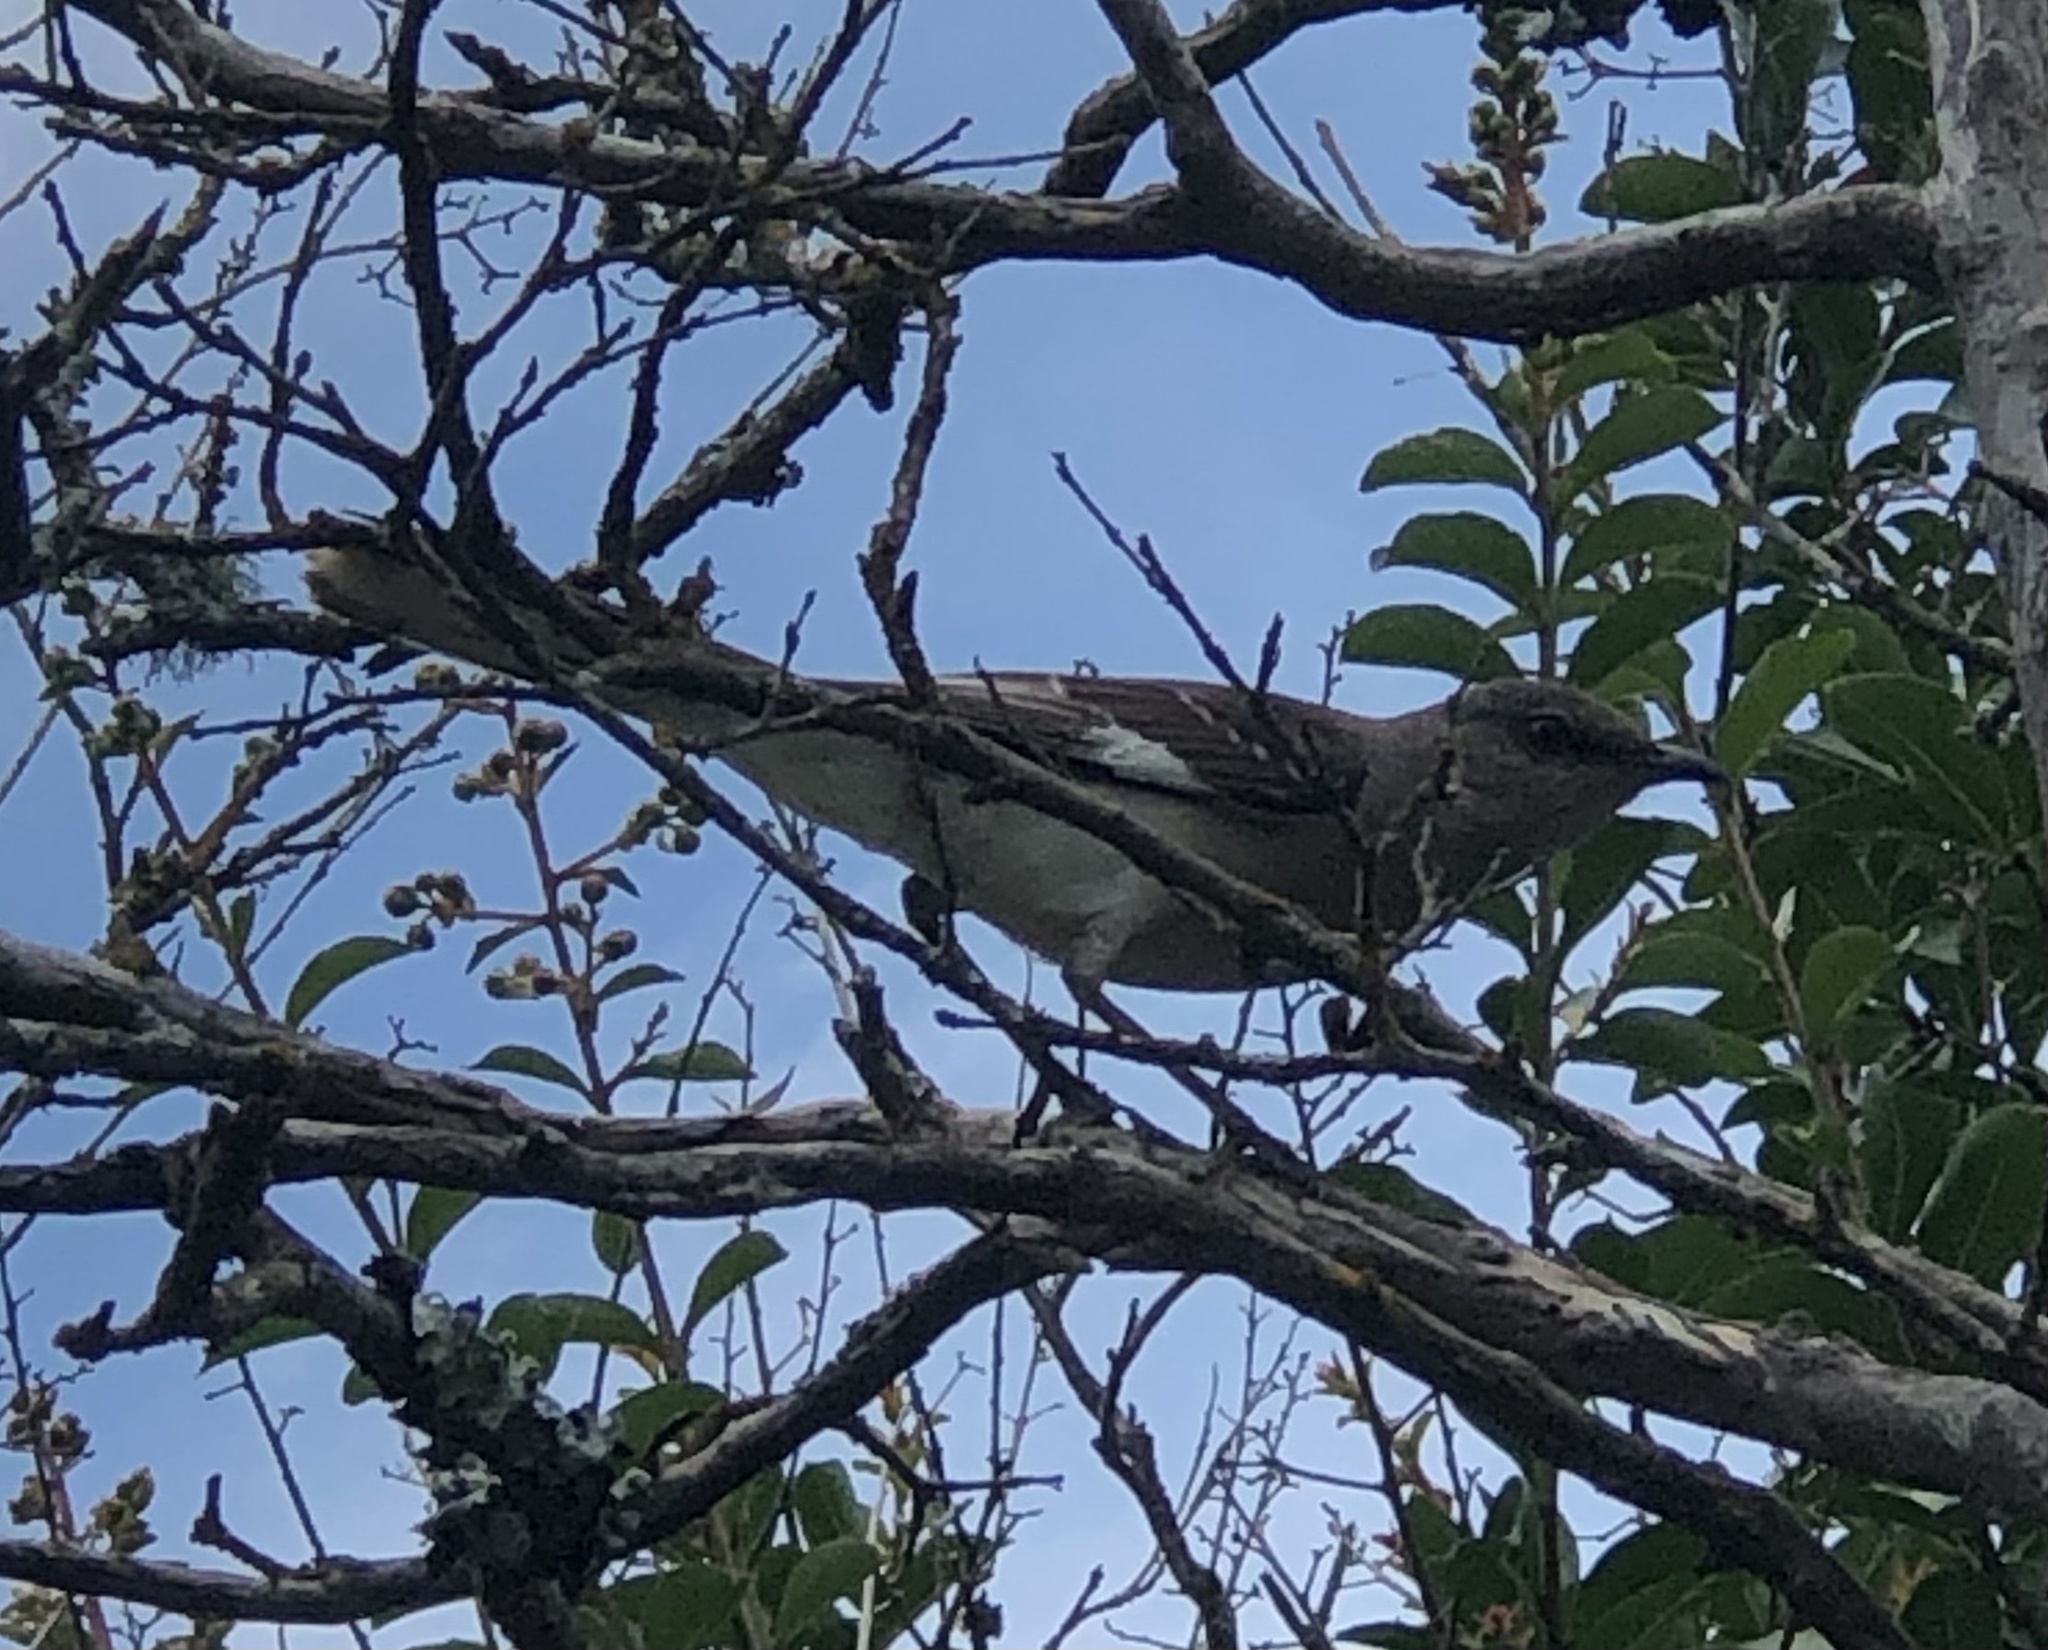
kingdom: Animalia
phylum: Chordata
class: Aves
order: Passeriformes
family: Mimidae
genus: Mimus
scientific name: Mimus polyglottos
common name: Northern mockingbird
